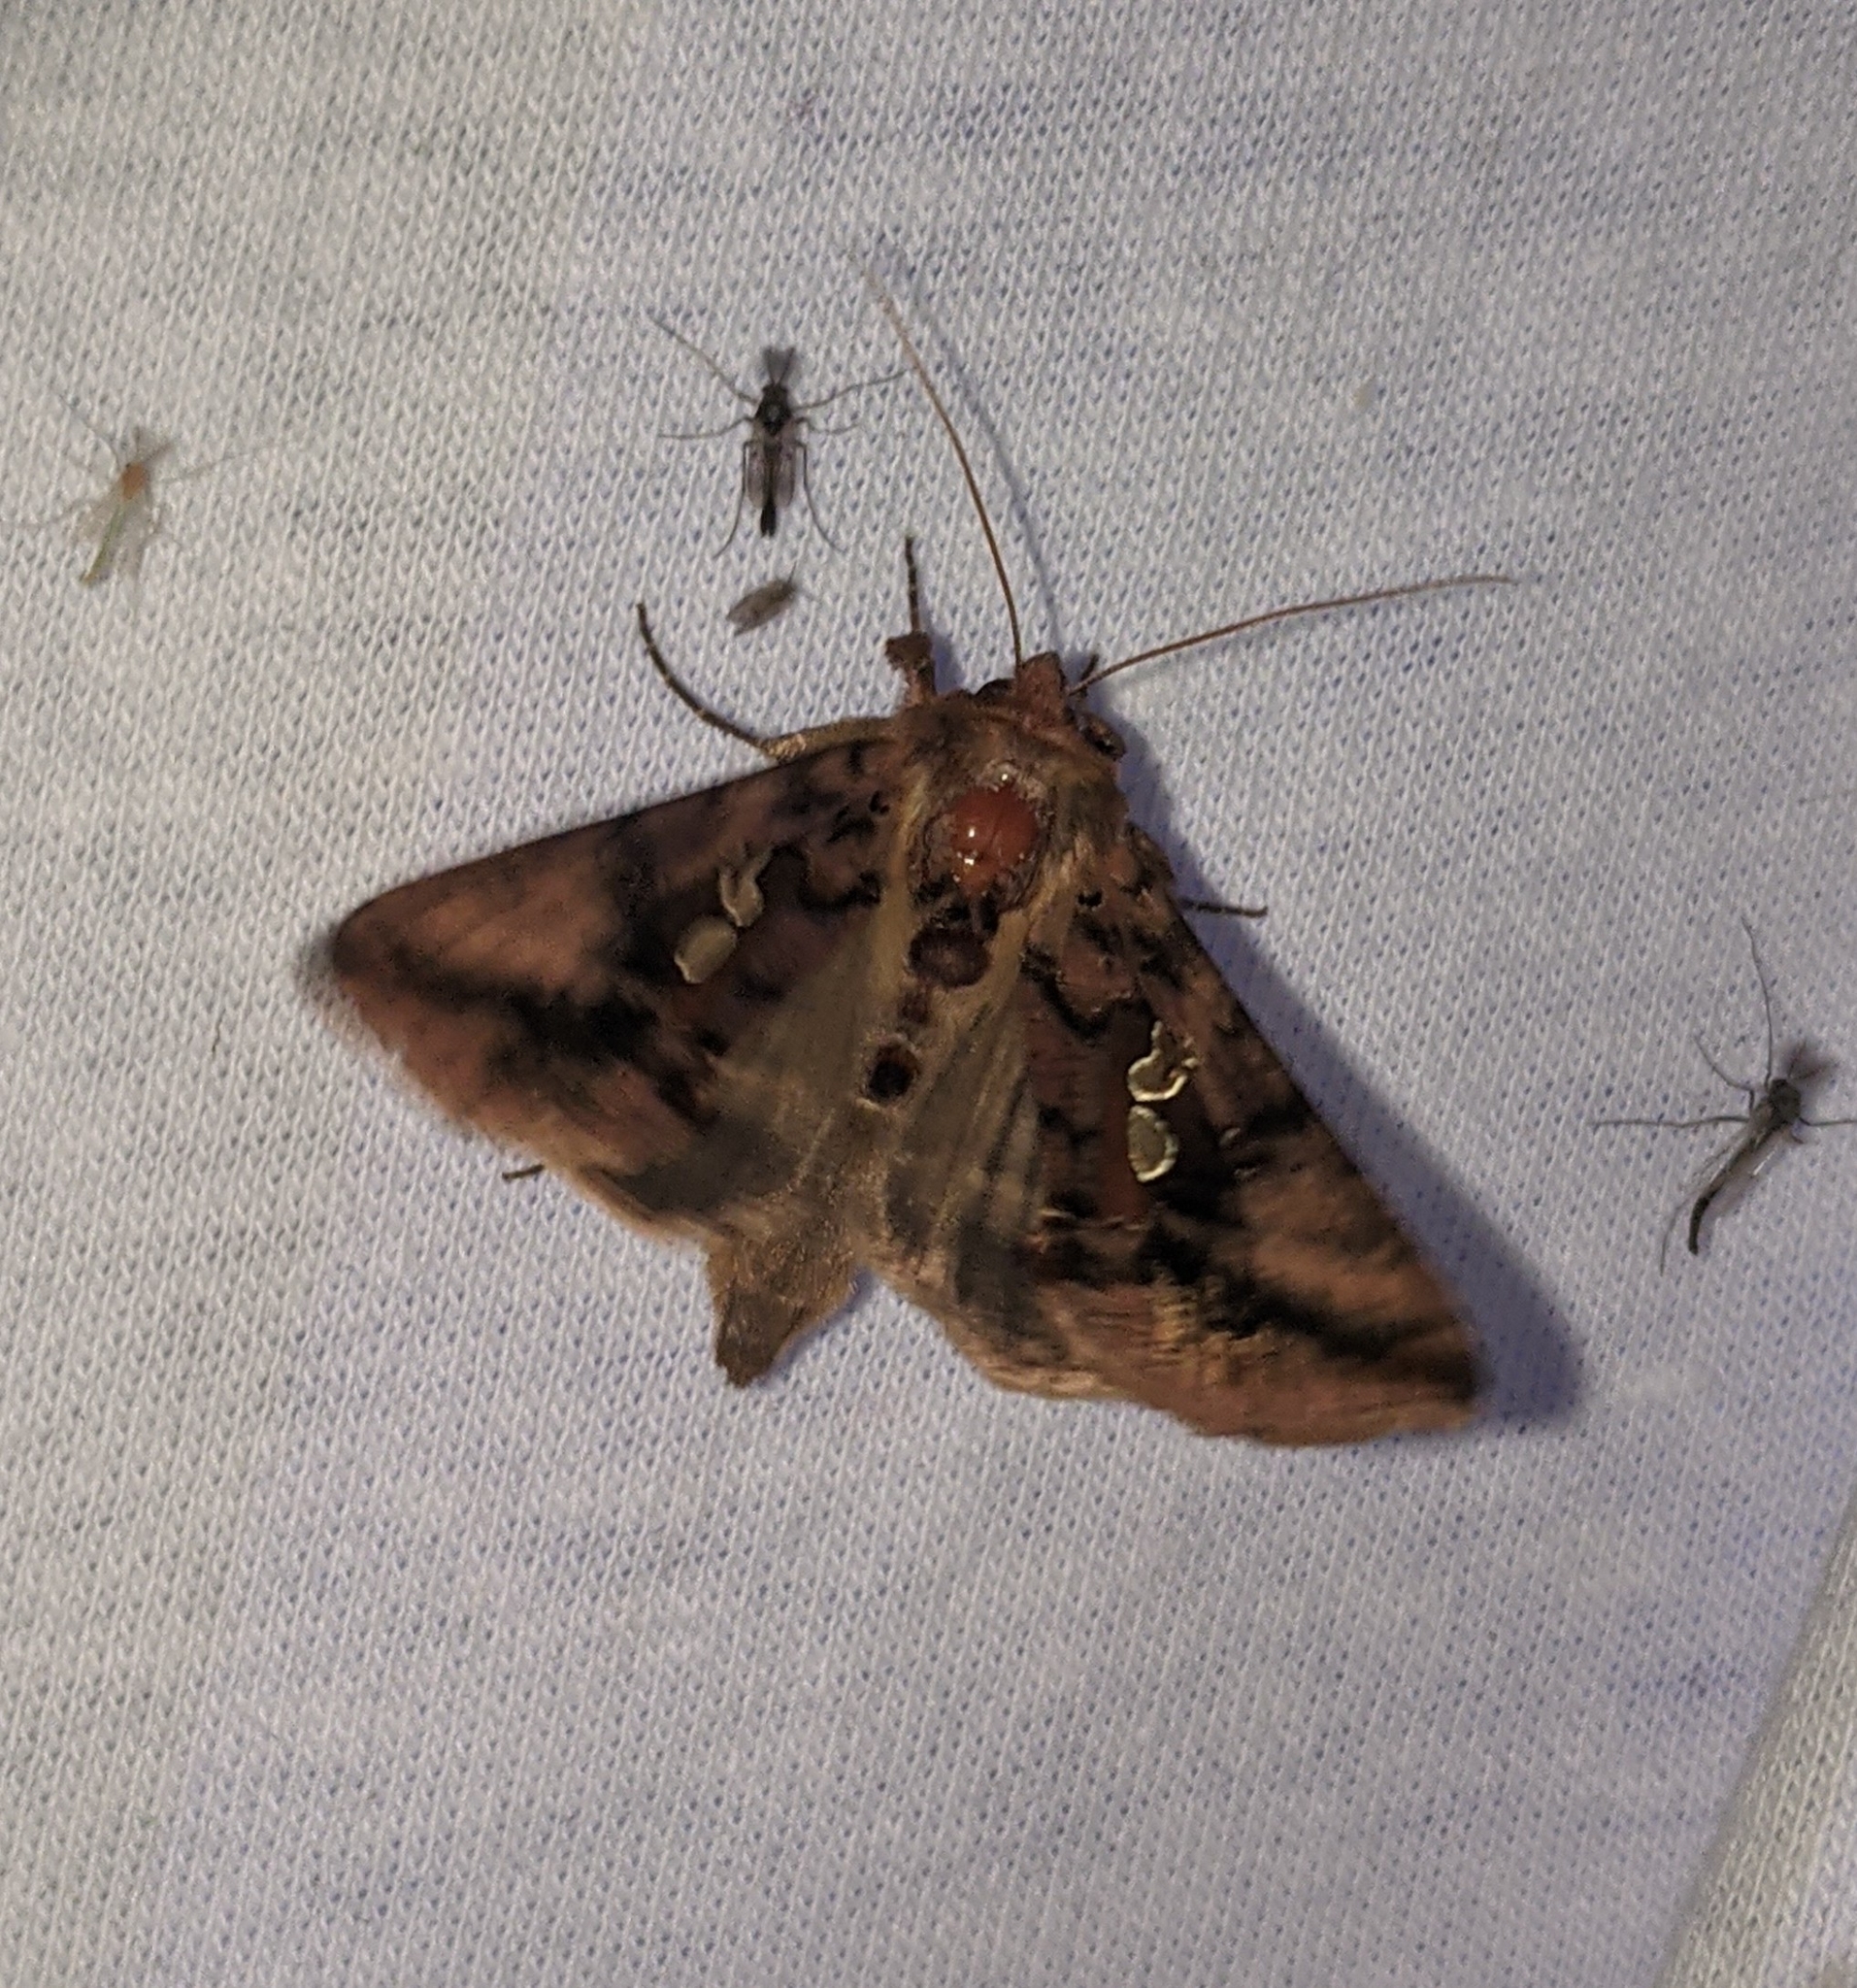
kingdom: Animalia
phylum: Arthropoda
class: Insecta
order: Lepidoptera
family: Noctuidae
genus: Autographa
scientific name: Autographa bimaculata
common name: Double-spotted spangle
